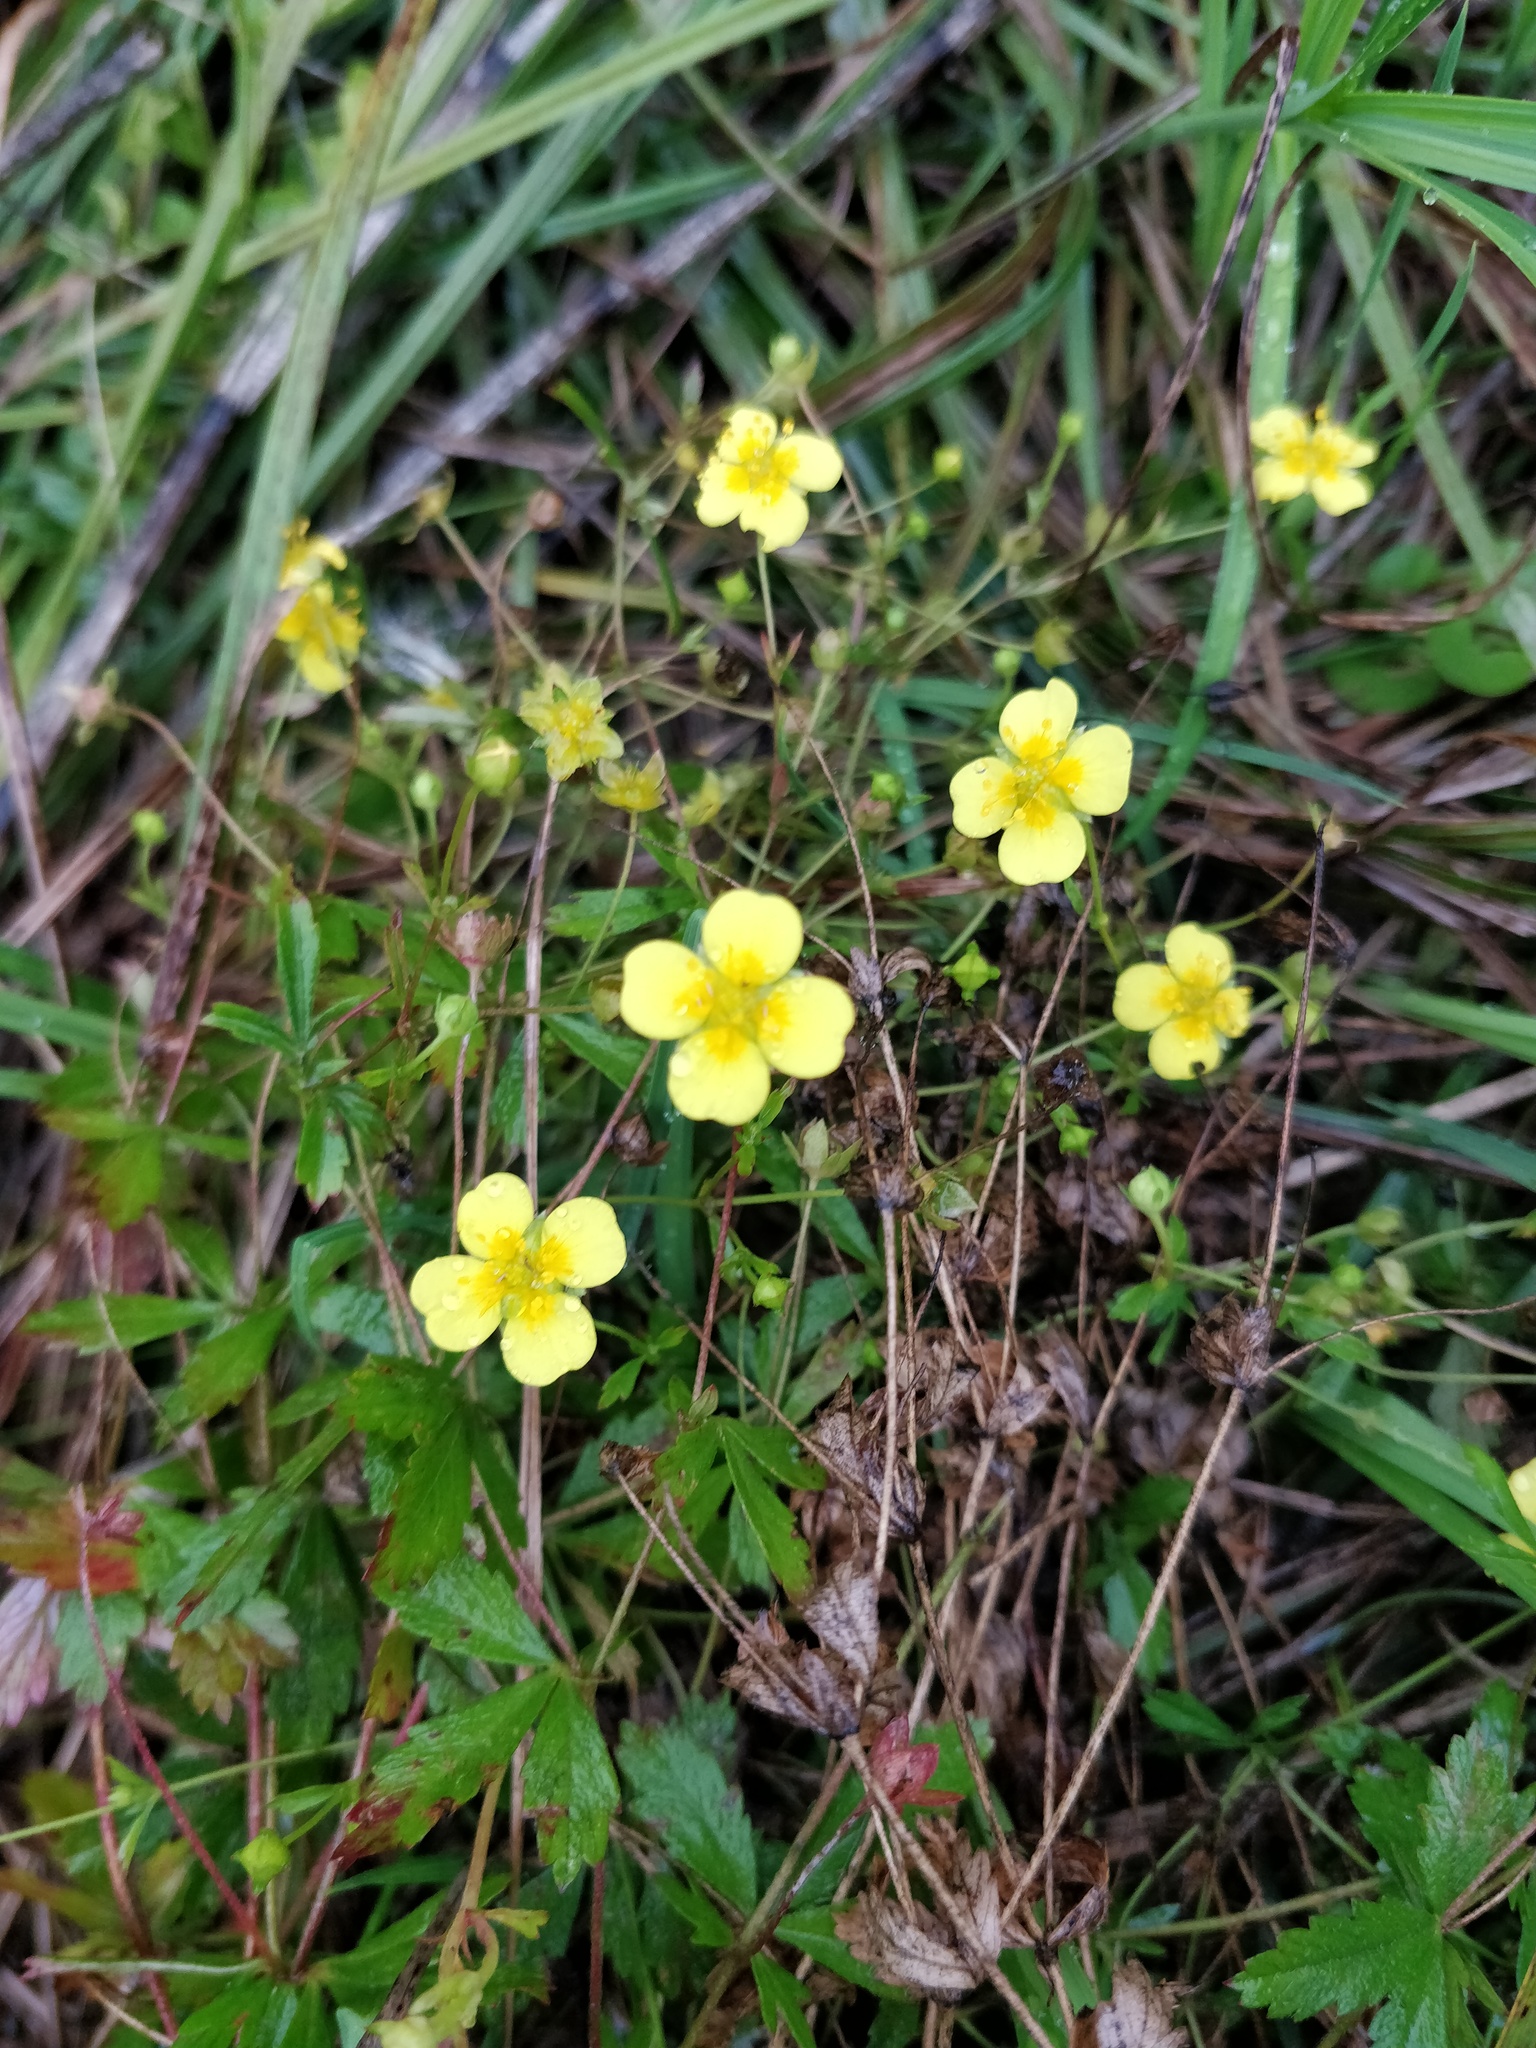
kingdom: Plantae
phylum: Tracheophyta
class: Magnoliopsida
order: Rosales
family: Rosaceae
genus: Potentilla
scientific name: Potentilla erecta
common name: Tormentil
